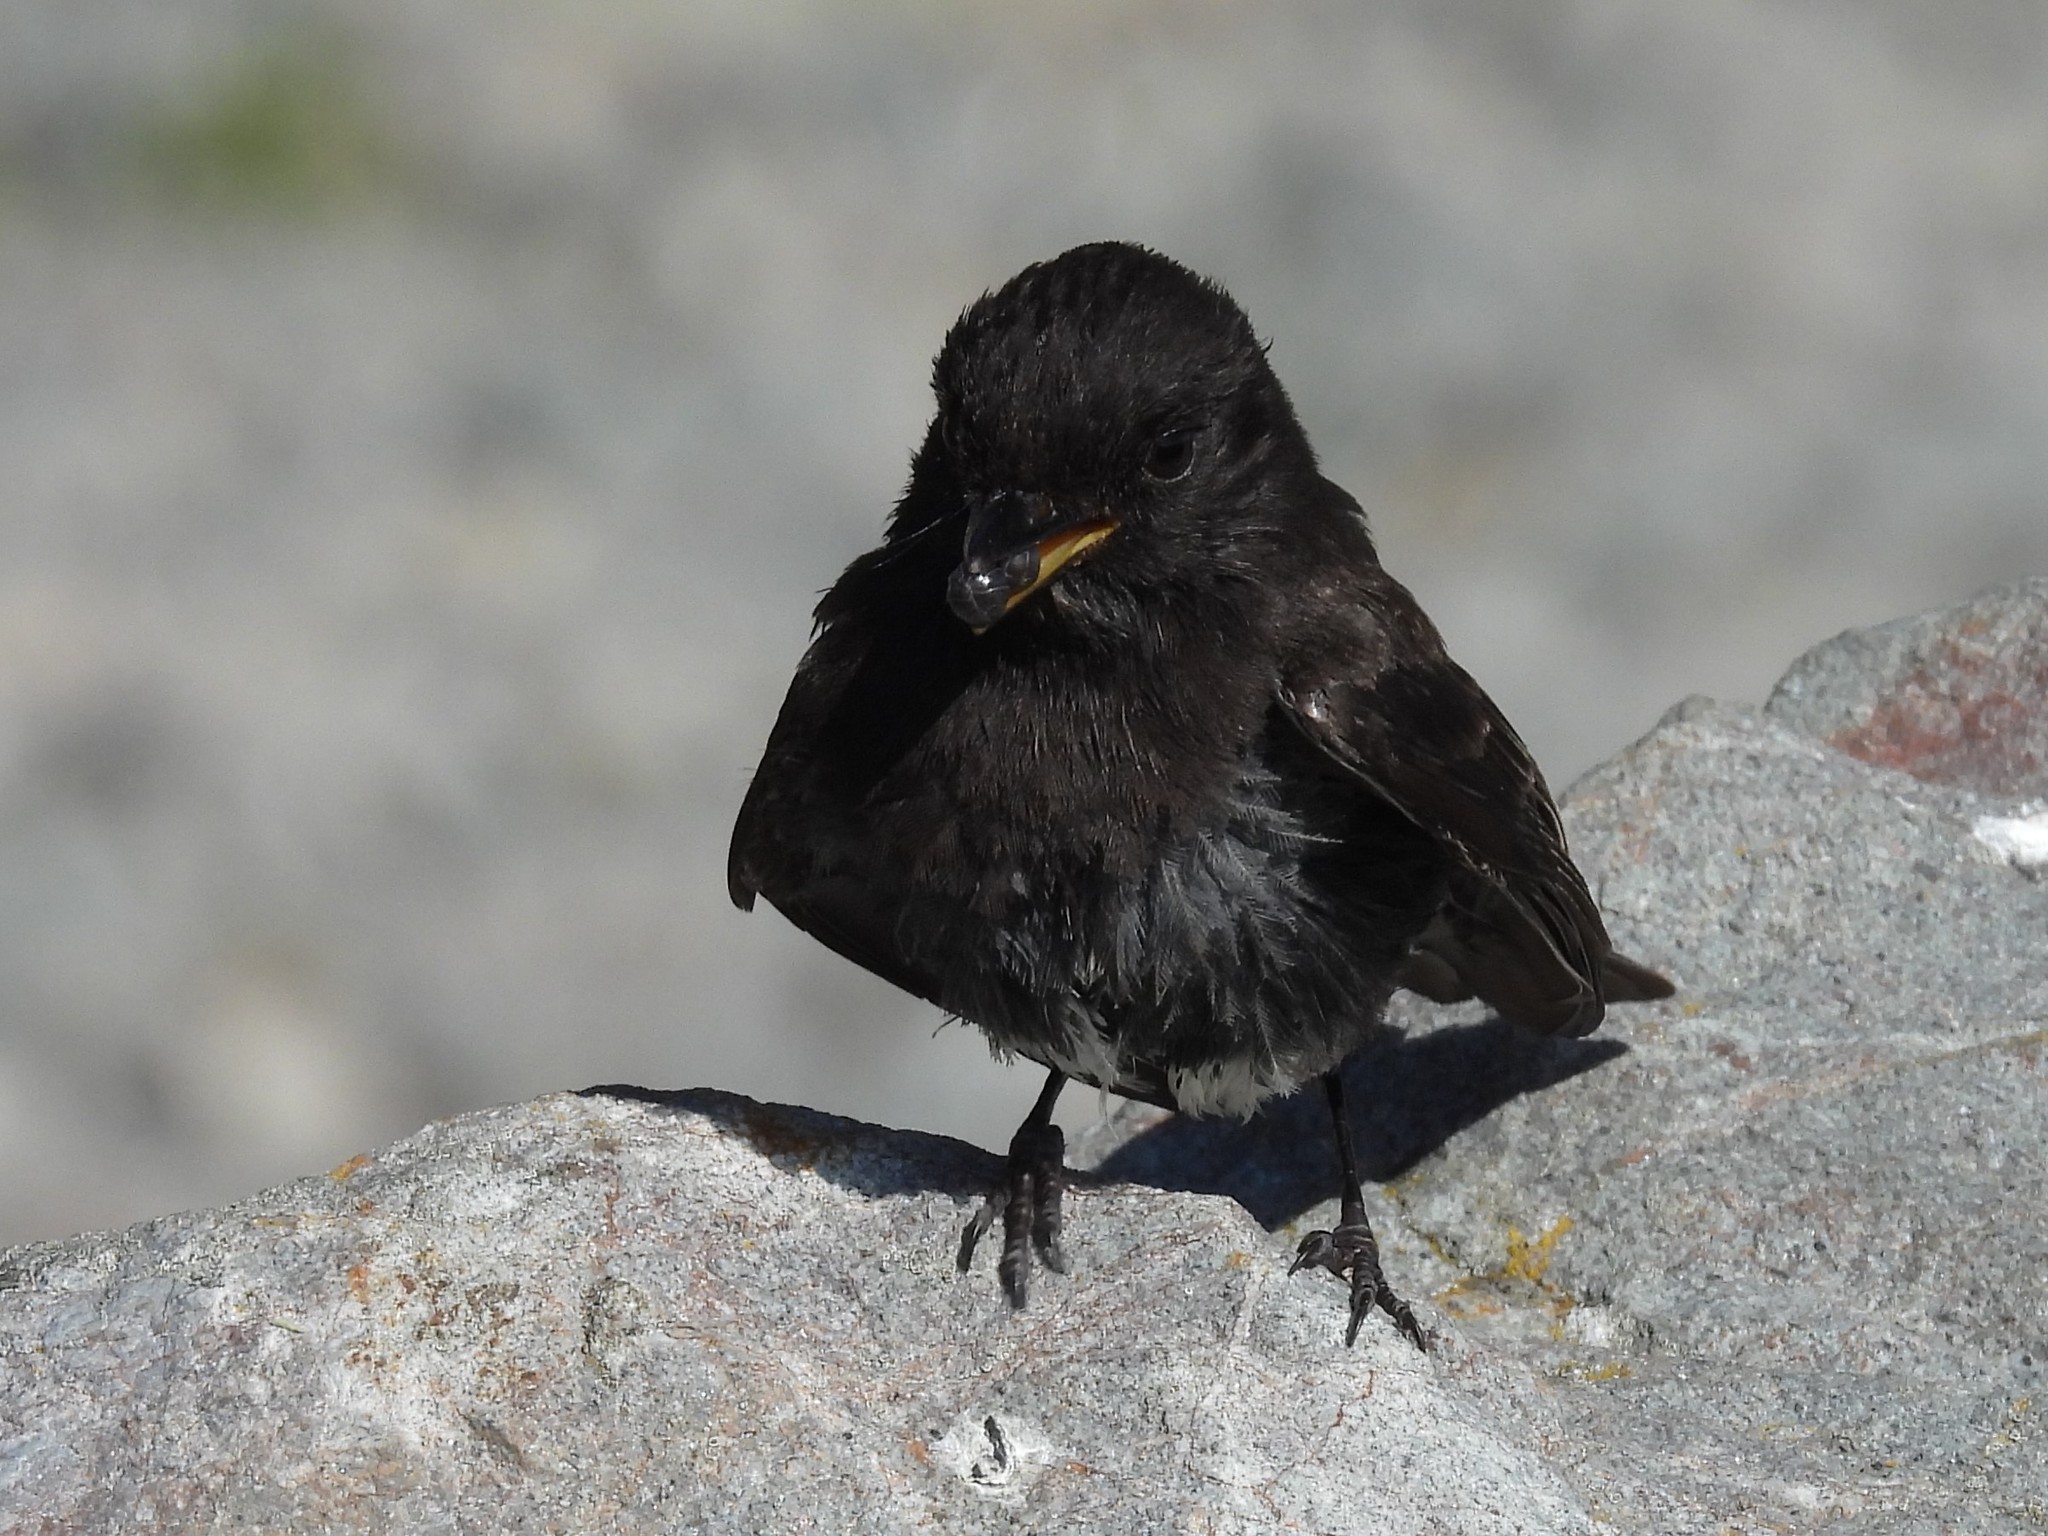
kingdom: Animalia
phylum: Chordata
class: Aves
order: Passeriformes
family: Tyrannidae
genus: Sayornis
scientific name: Sayornis nigricans
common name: Black phoebe
